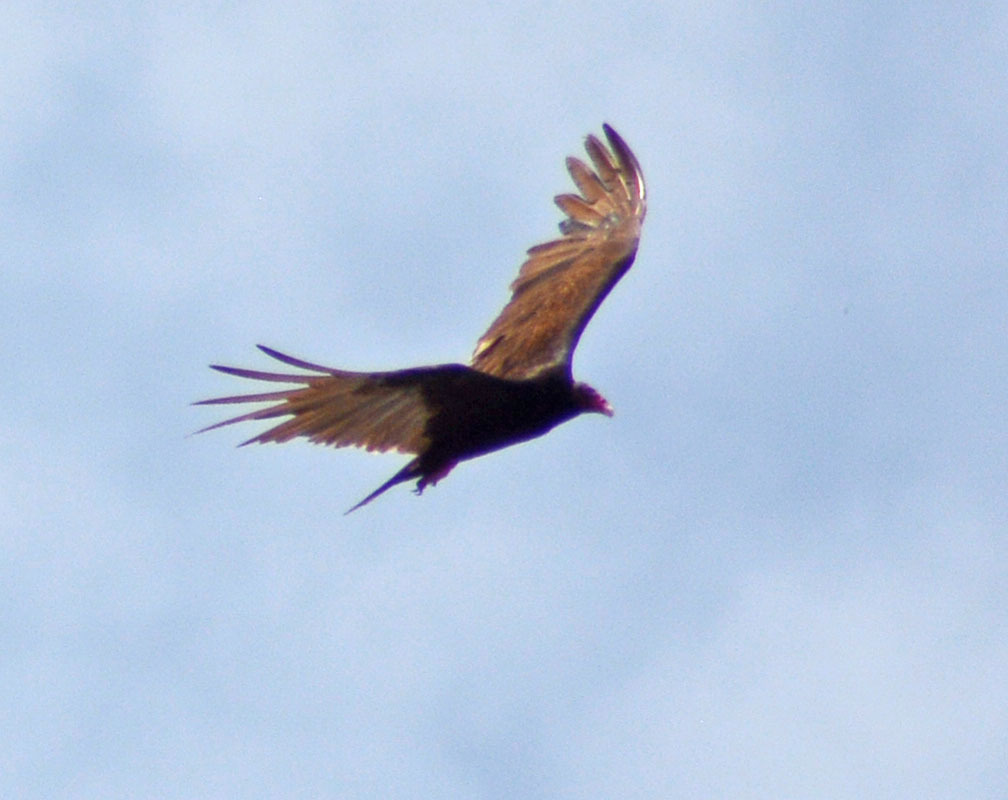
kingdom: Animalia
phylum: Chordata
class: Aves
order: Accipitriformes
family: Cathartidae
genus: Cathartes
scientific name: Cathartes aura
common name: Turkey vulture
